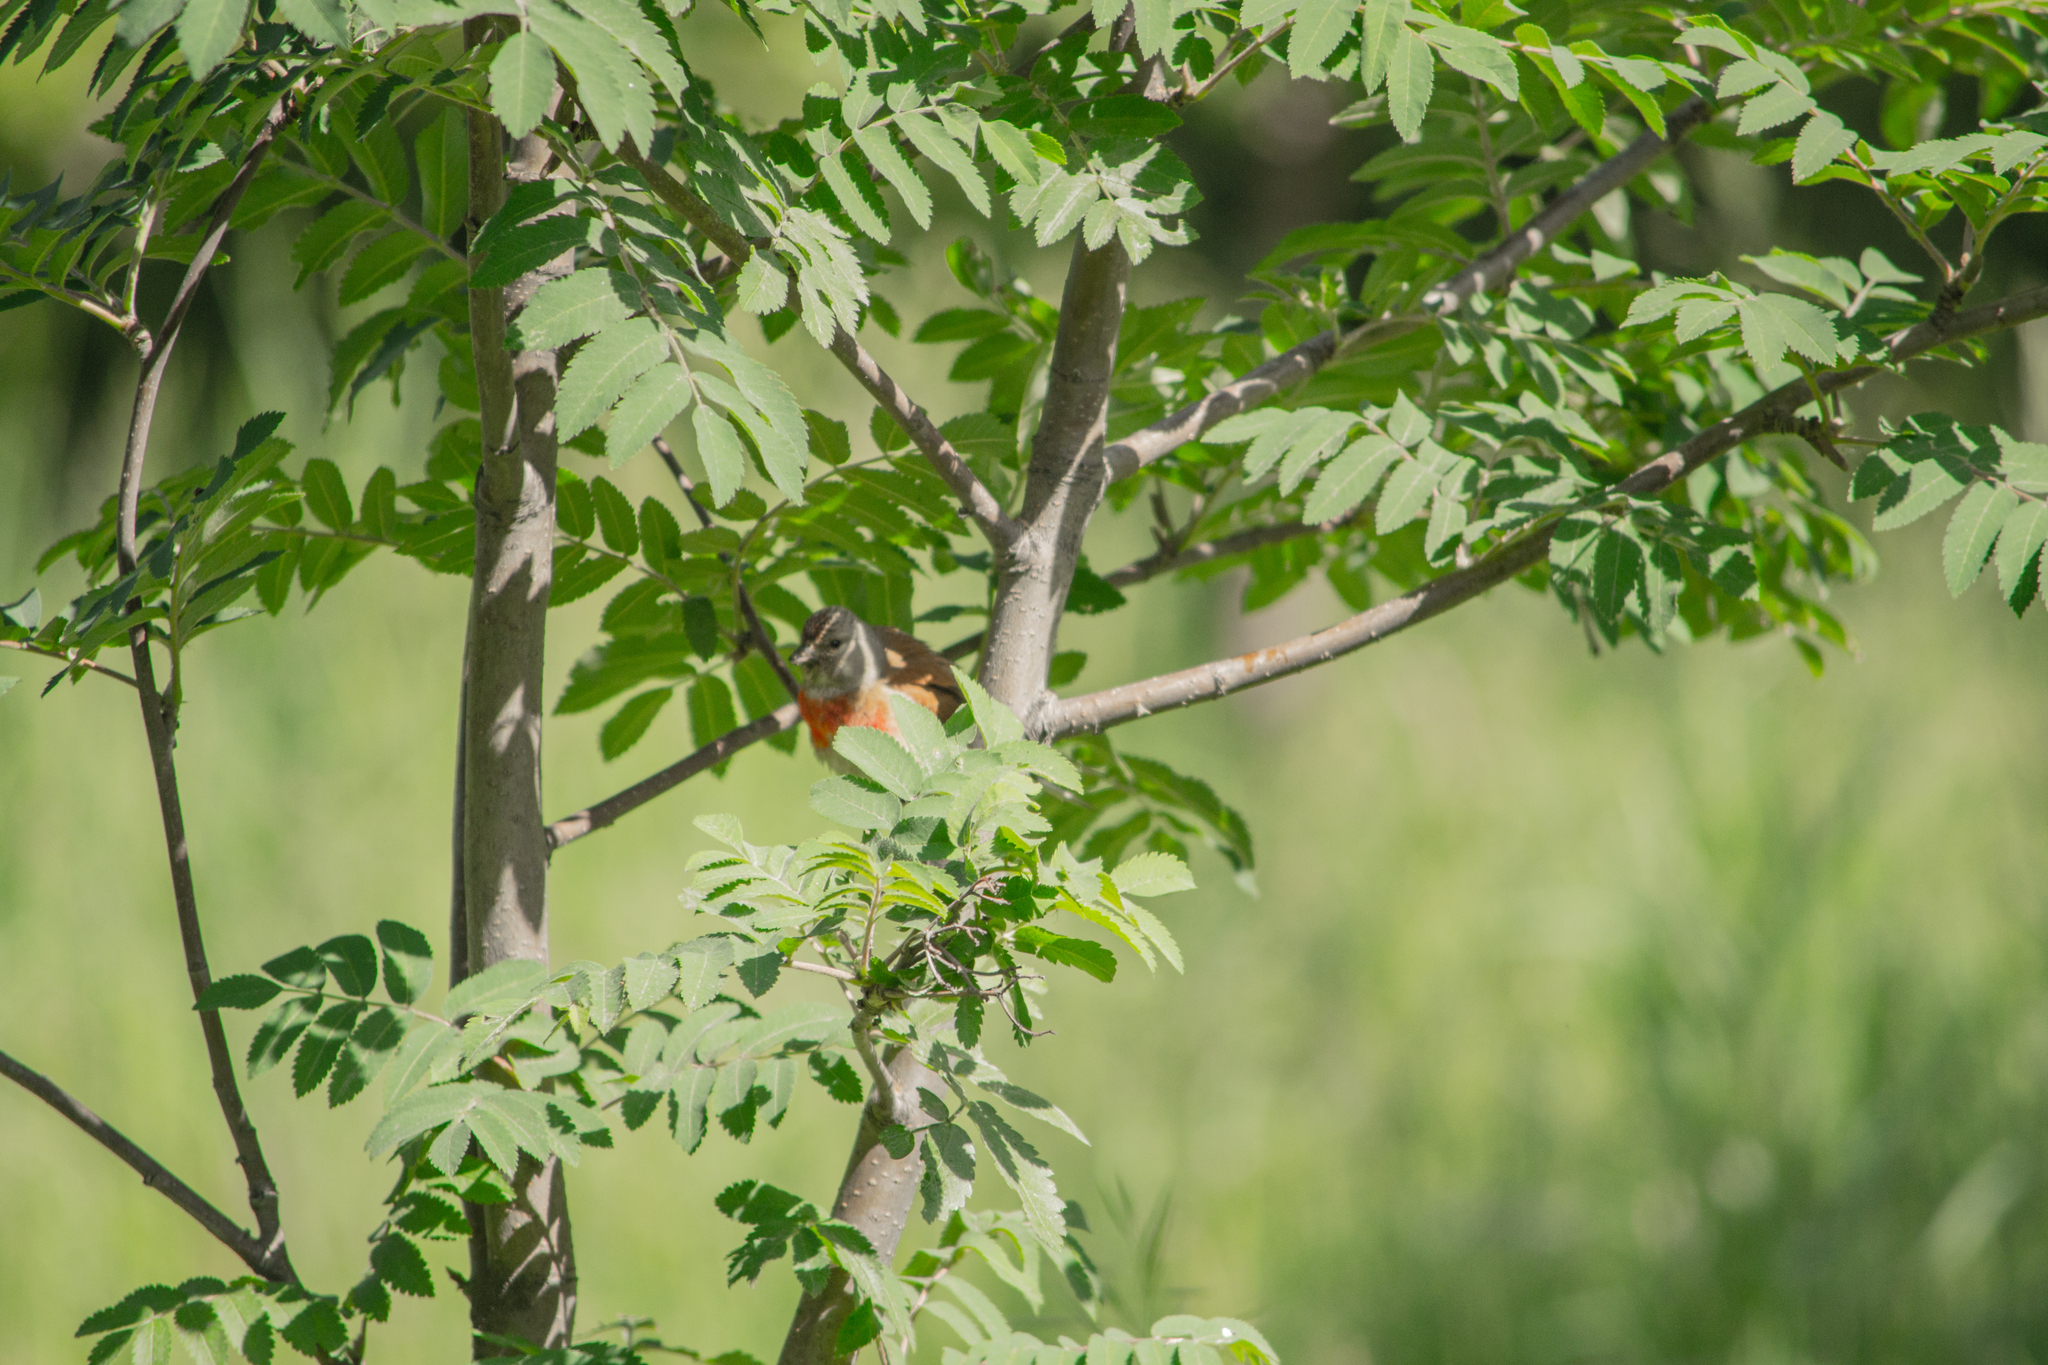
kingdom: Animalia
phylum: Chordata
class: Aves
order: Passeriformes
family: Fringillidae
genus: Linaria
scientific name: Linaria cannabina
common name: Common linnet
